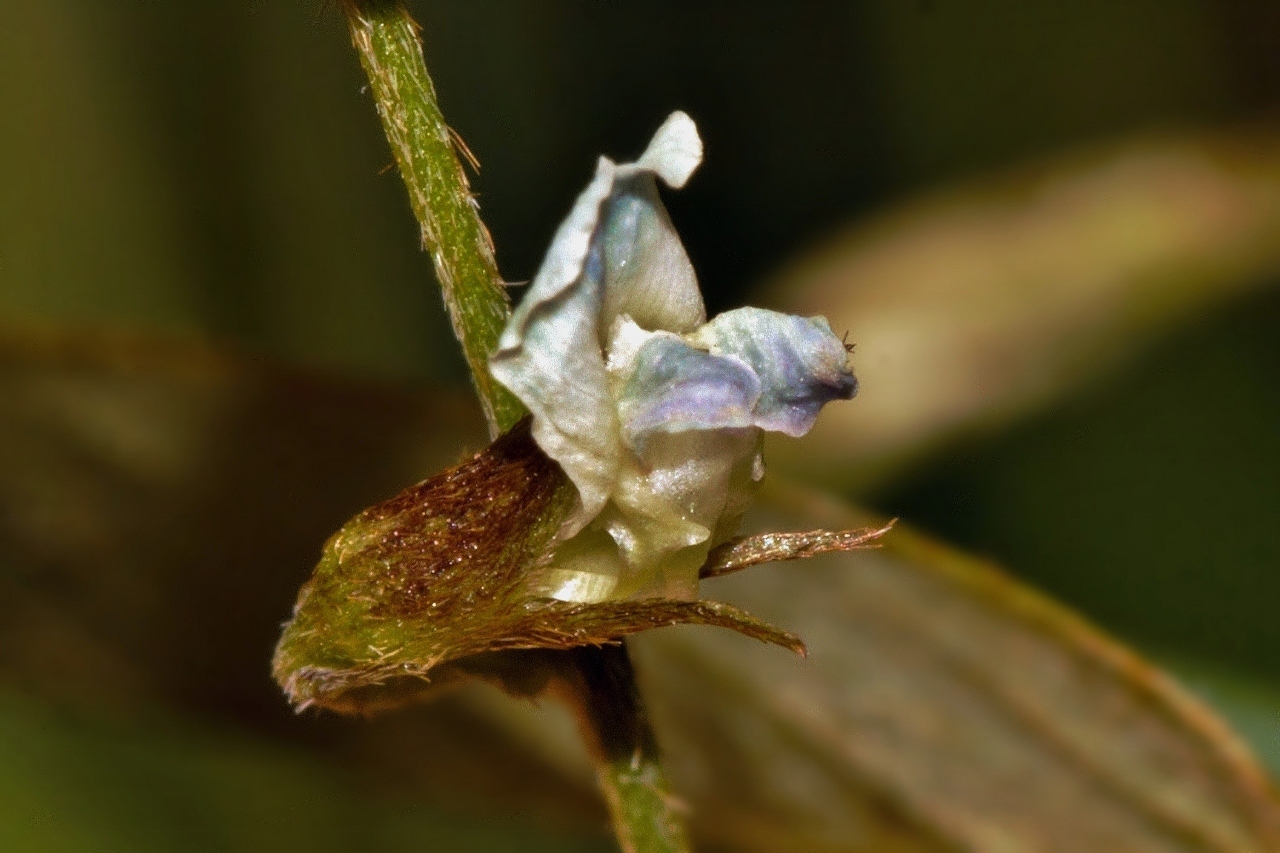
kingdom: Plantae
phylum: Tracheophyta
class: Magnoliopsida
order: Fabales
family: Fabaceae
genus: Teramnus
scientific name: Teramnus labialis
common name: Blue wiss
